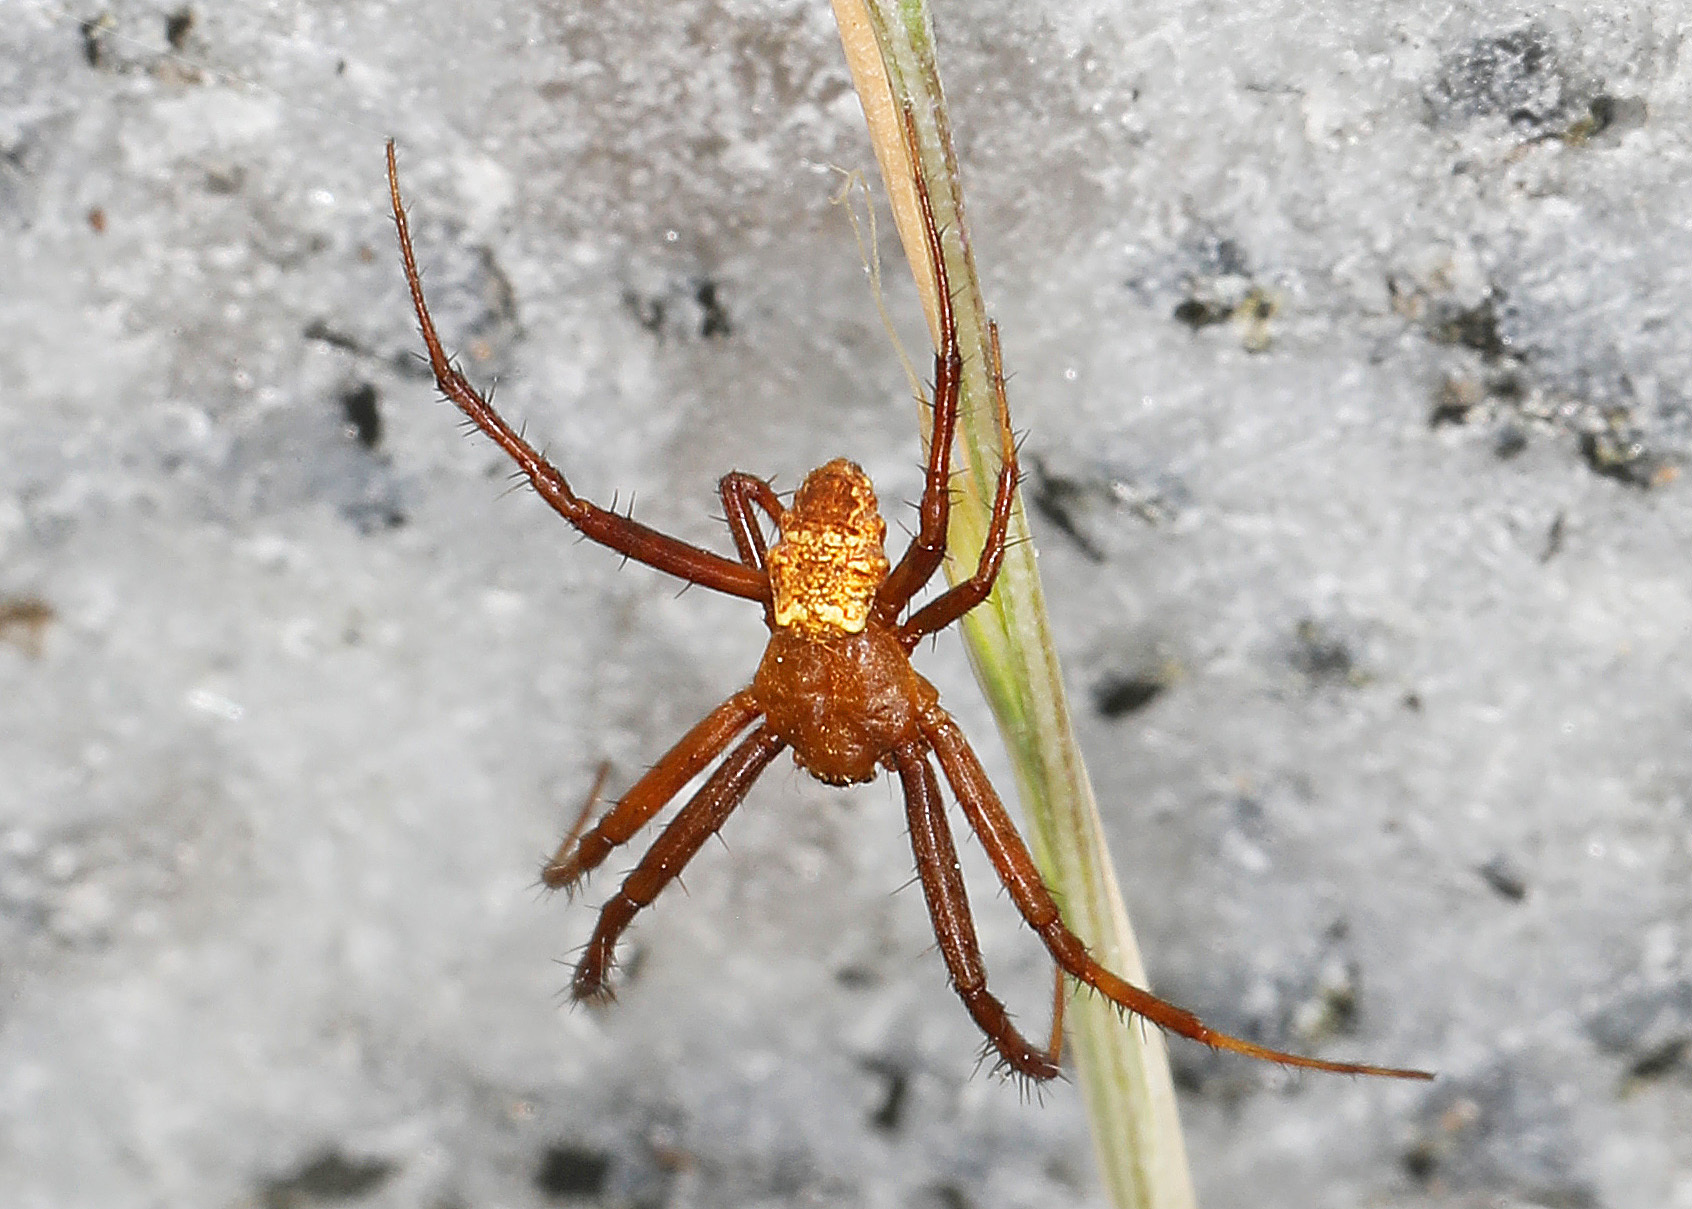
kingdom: Animalia
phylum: Arthropoda
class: Arachnida
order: Araneae
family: Araneidae
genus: Gea
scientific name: Gea heptagon
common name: Orb weavers
